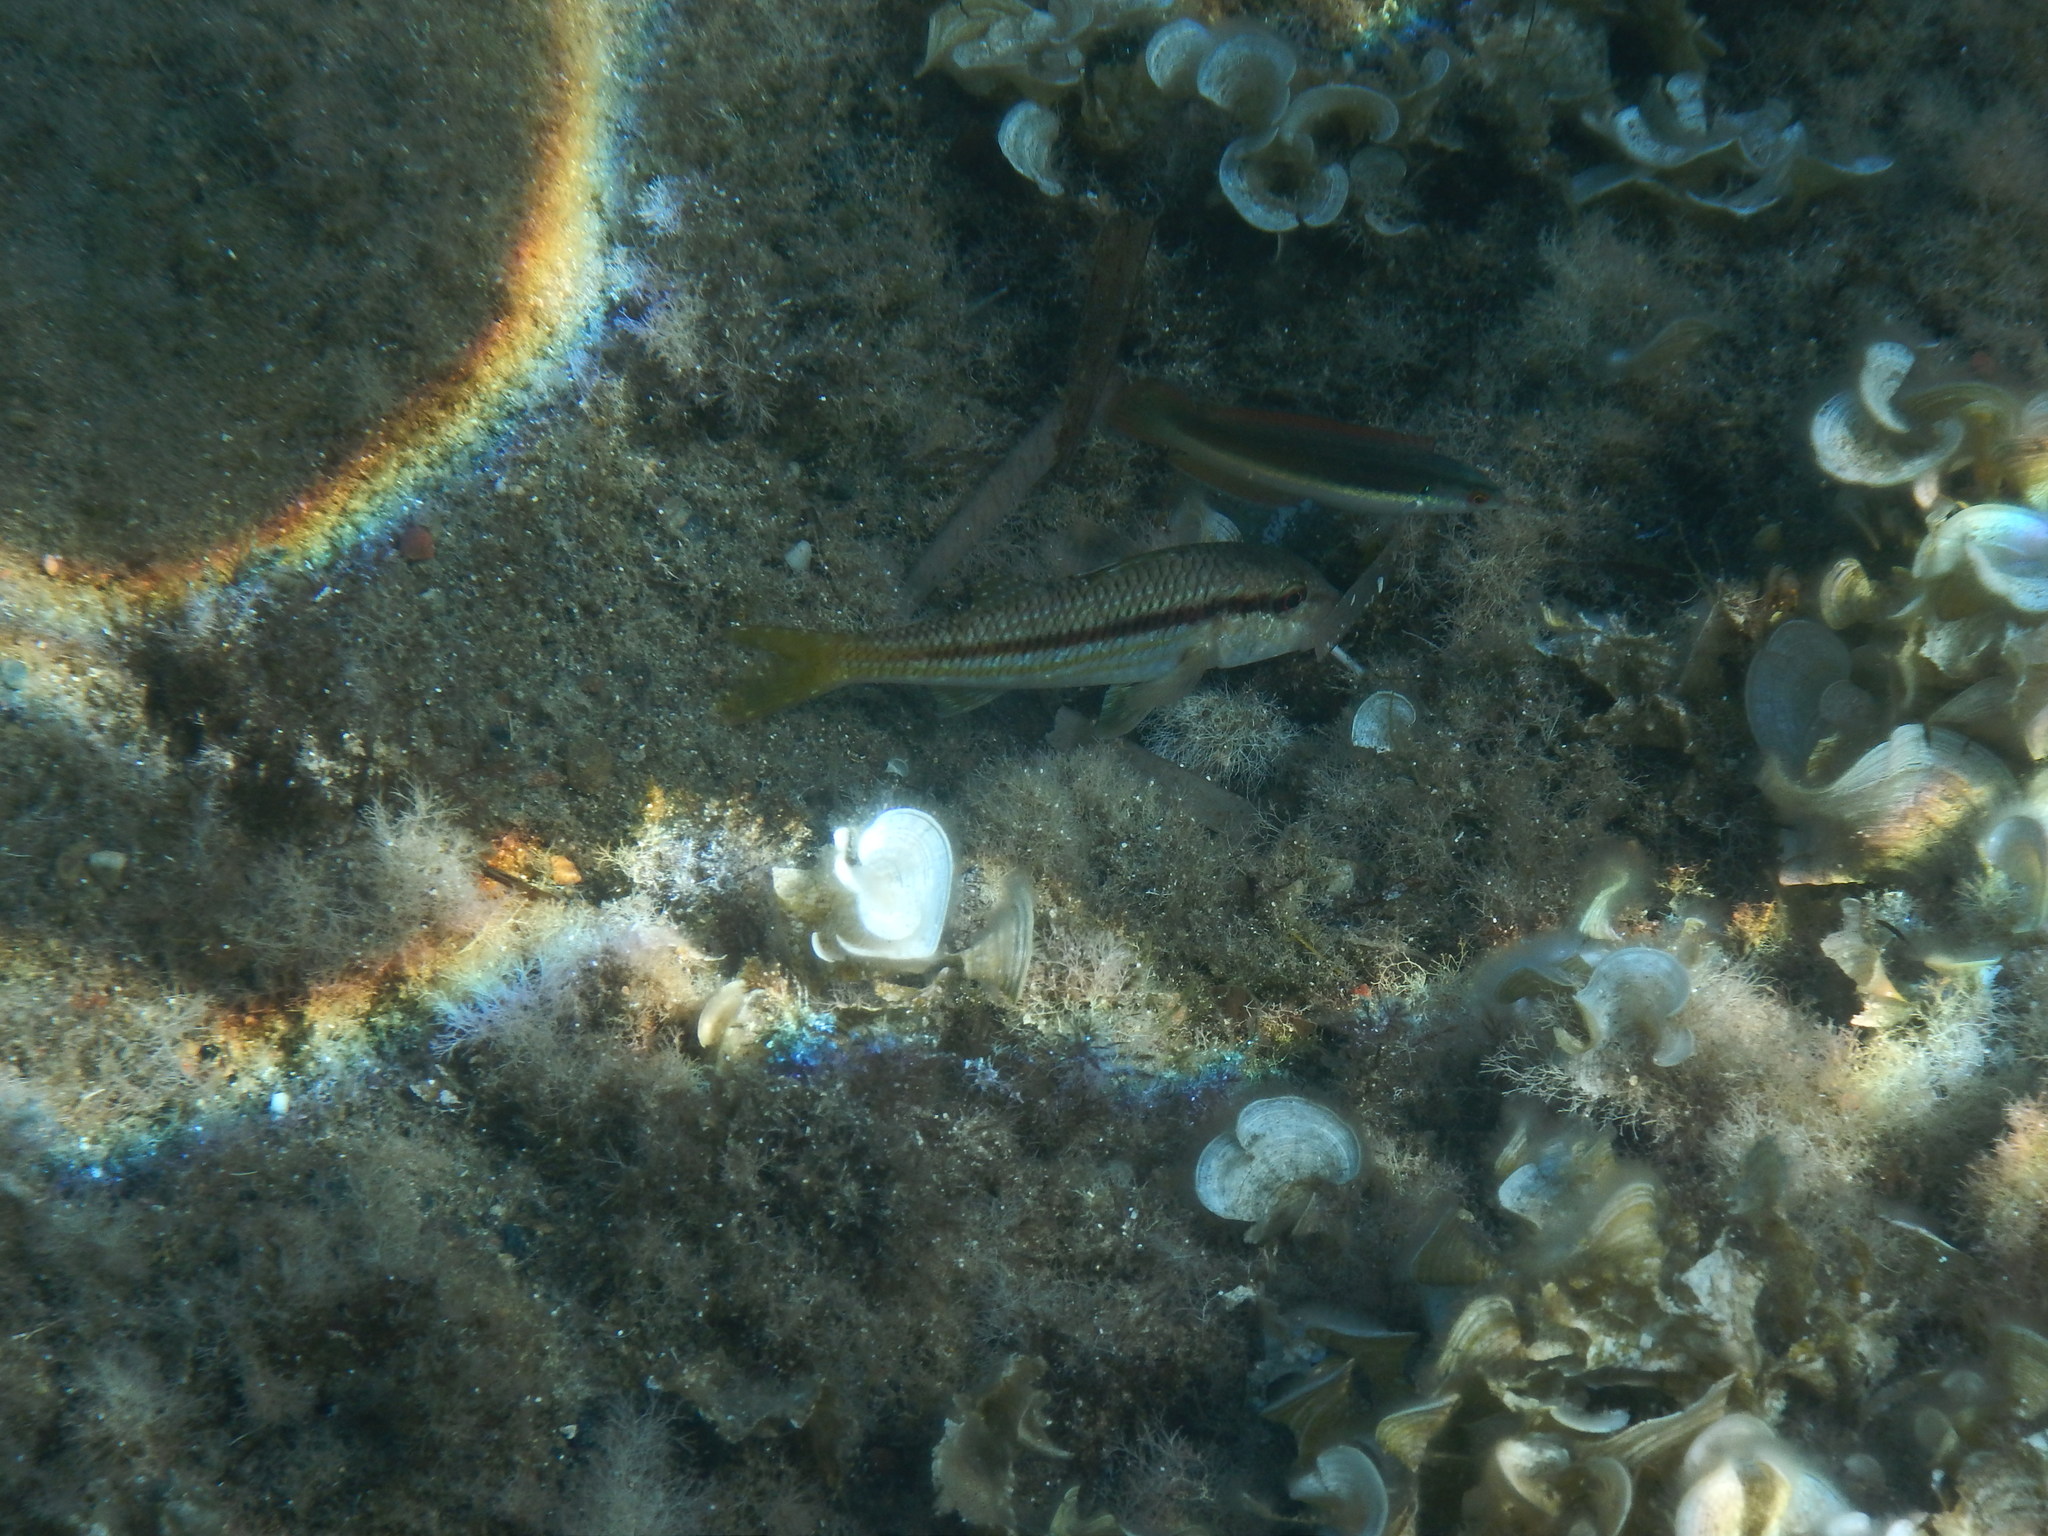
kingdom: Animalia
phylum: Chordata
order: Perciformes
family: Mullidae
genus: Mullus
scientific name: Mullus surmuletus
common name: Red mullet
